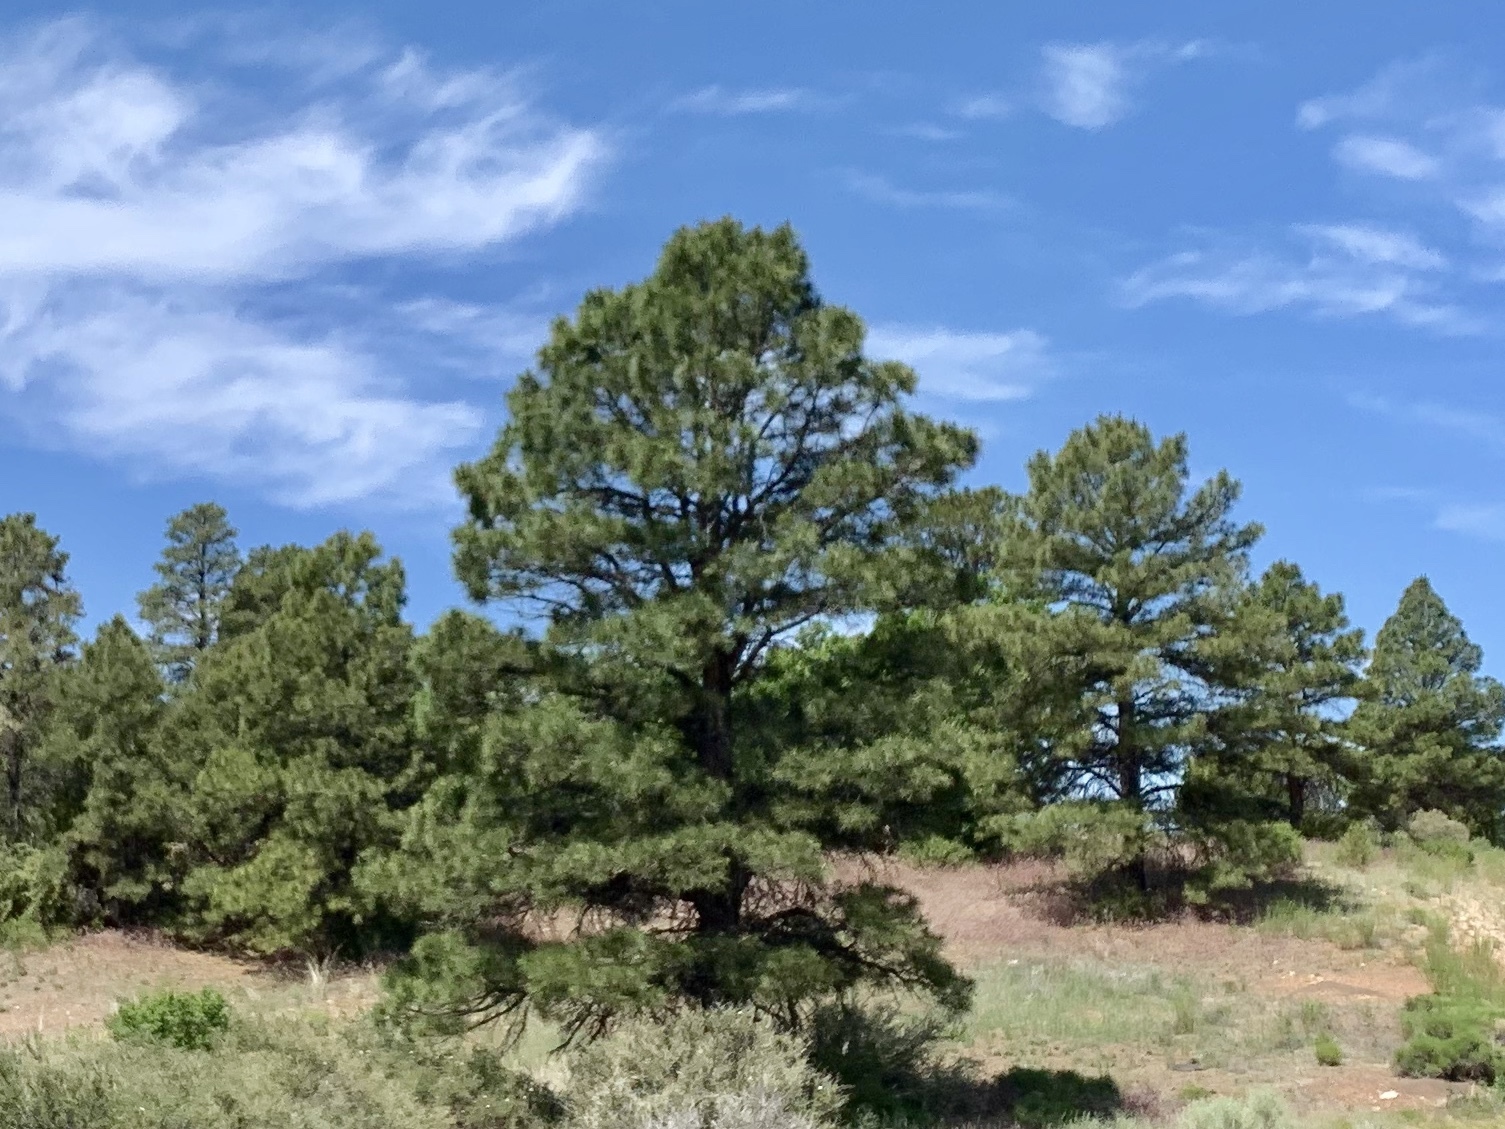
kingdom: Plantae
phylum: Tracheophyta
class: Pinopsida
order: Pinales
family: Pinaceae
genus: Pinus
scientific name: Pinus ponderosa
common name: Western yellow-pine
